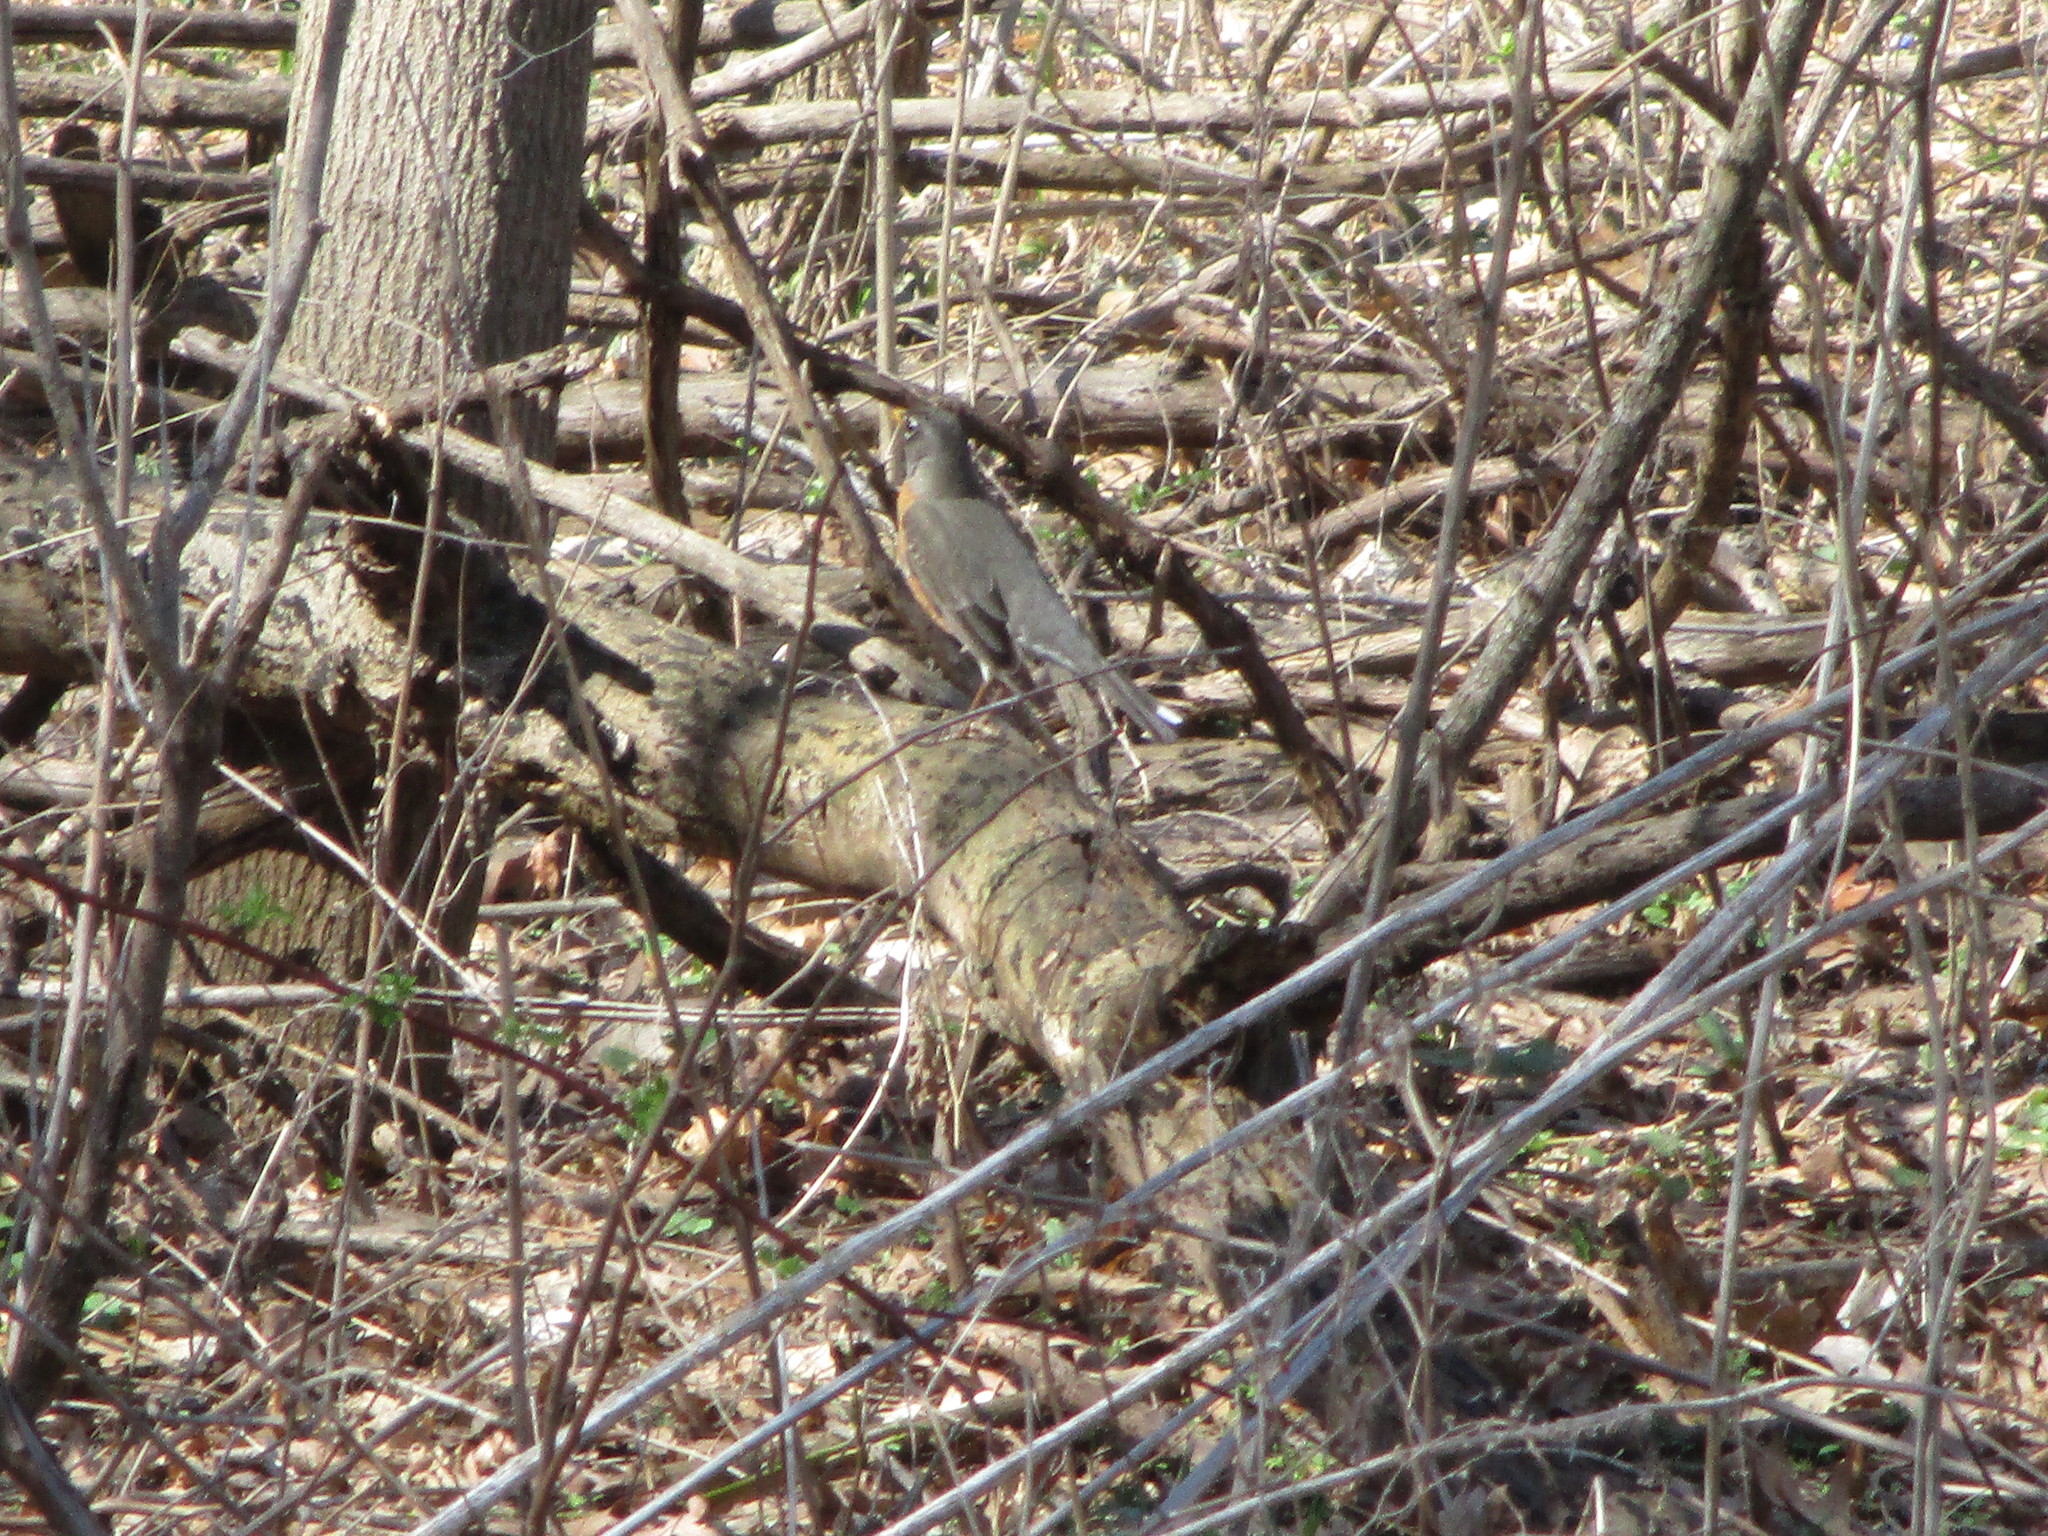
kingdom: Animalia
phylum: Chordata
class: Aves
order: Passeriformes
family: Turdidae
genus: Turdus
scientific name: Turdus migratorius
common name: American robin
